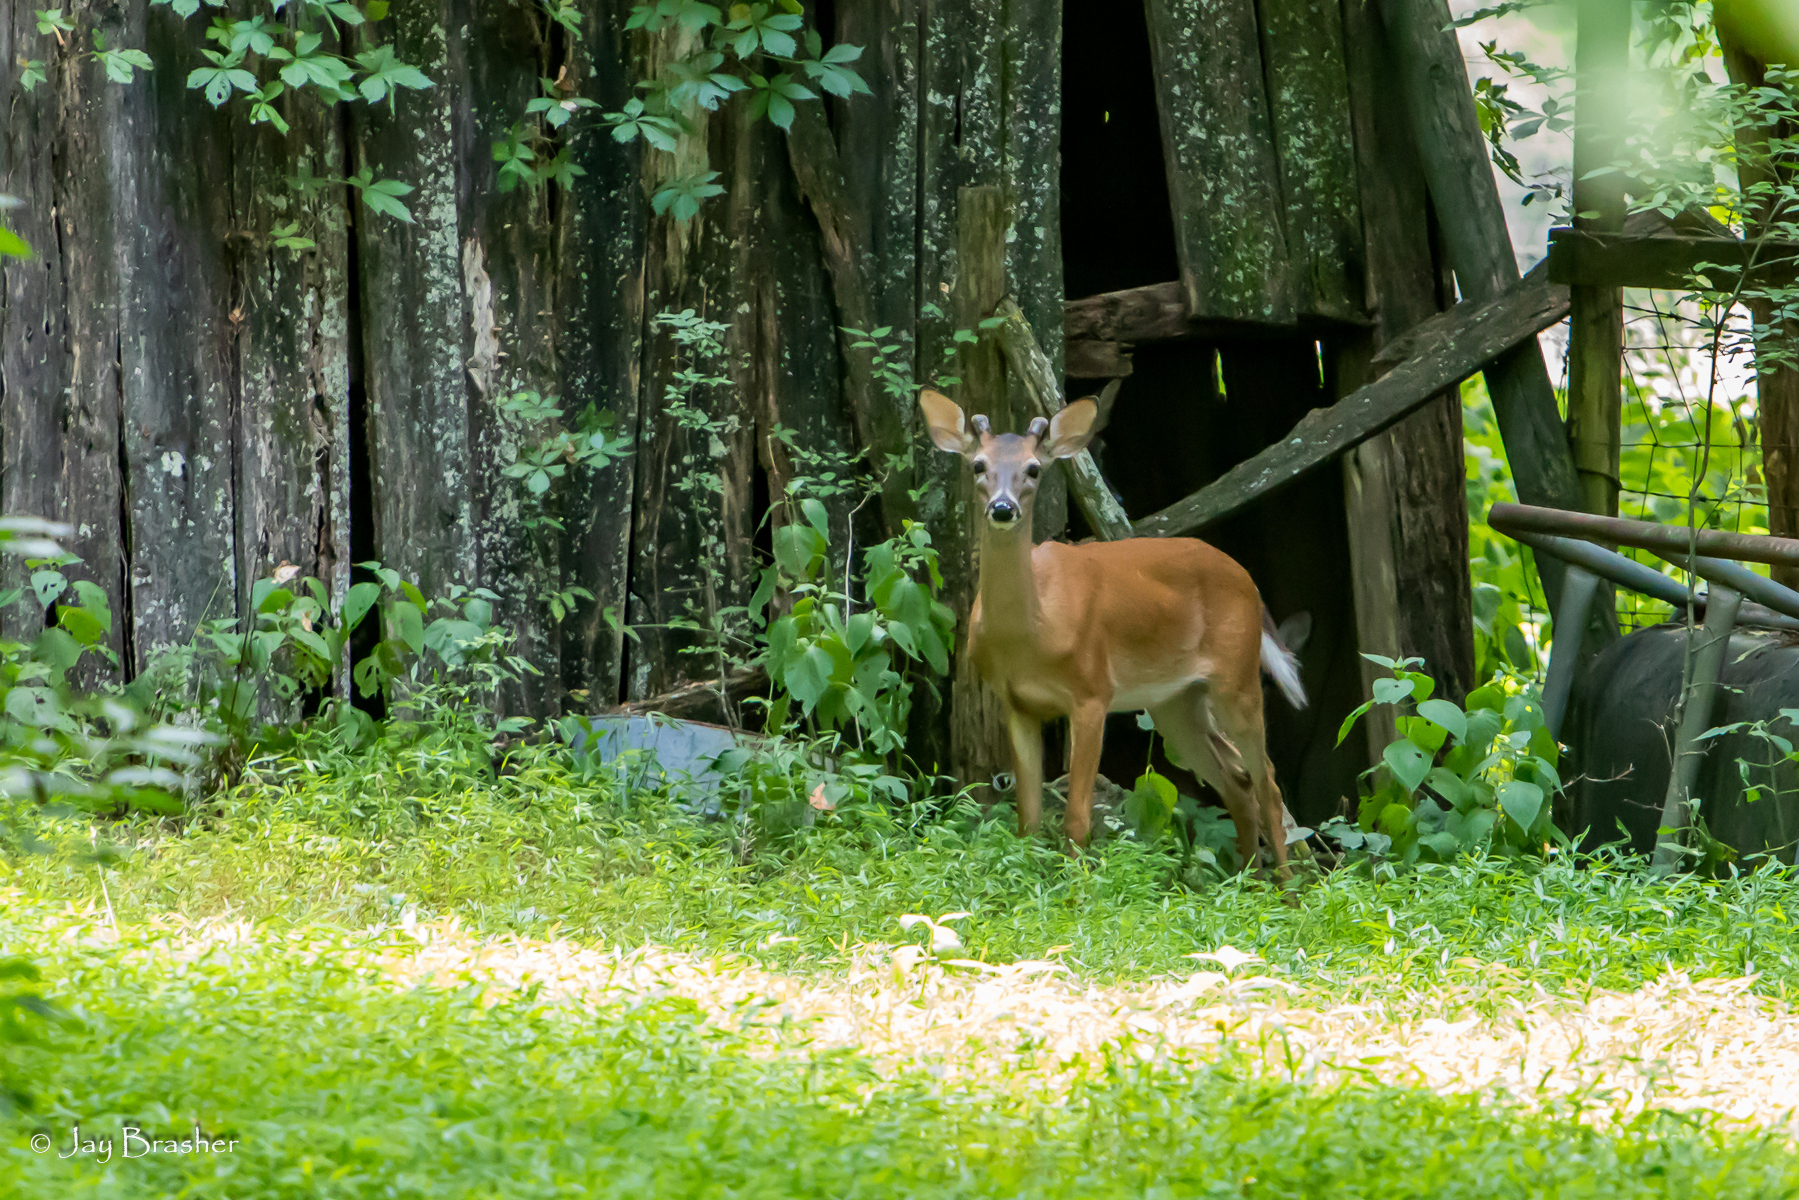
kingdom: Animalia
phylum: Chordata
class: Mammalia
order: Artiodactyla
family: Cervidae
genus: Odocoileus
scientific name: Odocoileus virginianus
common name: White-tailed deer
